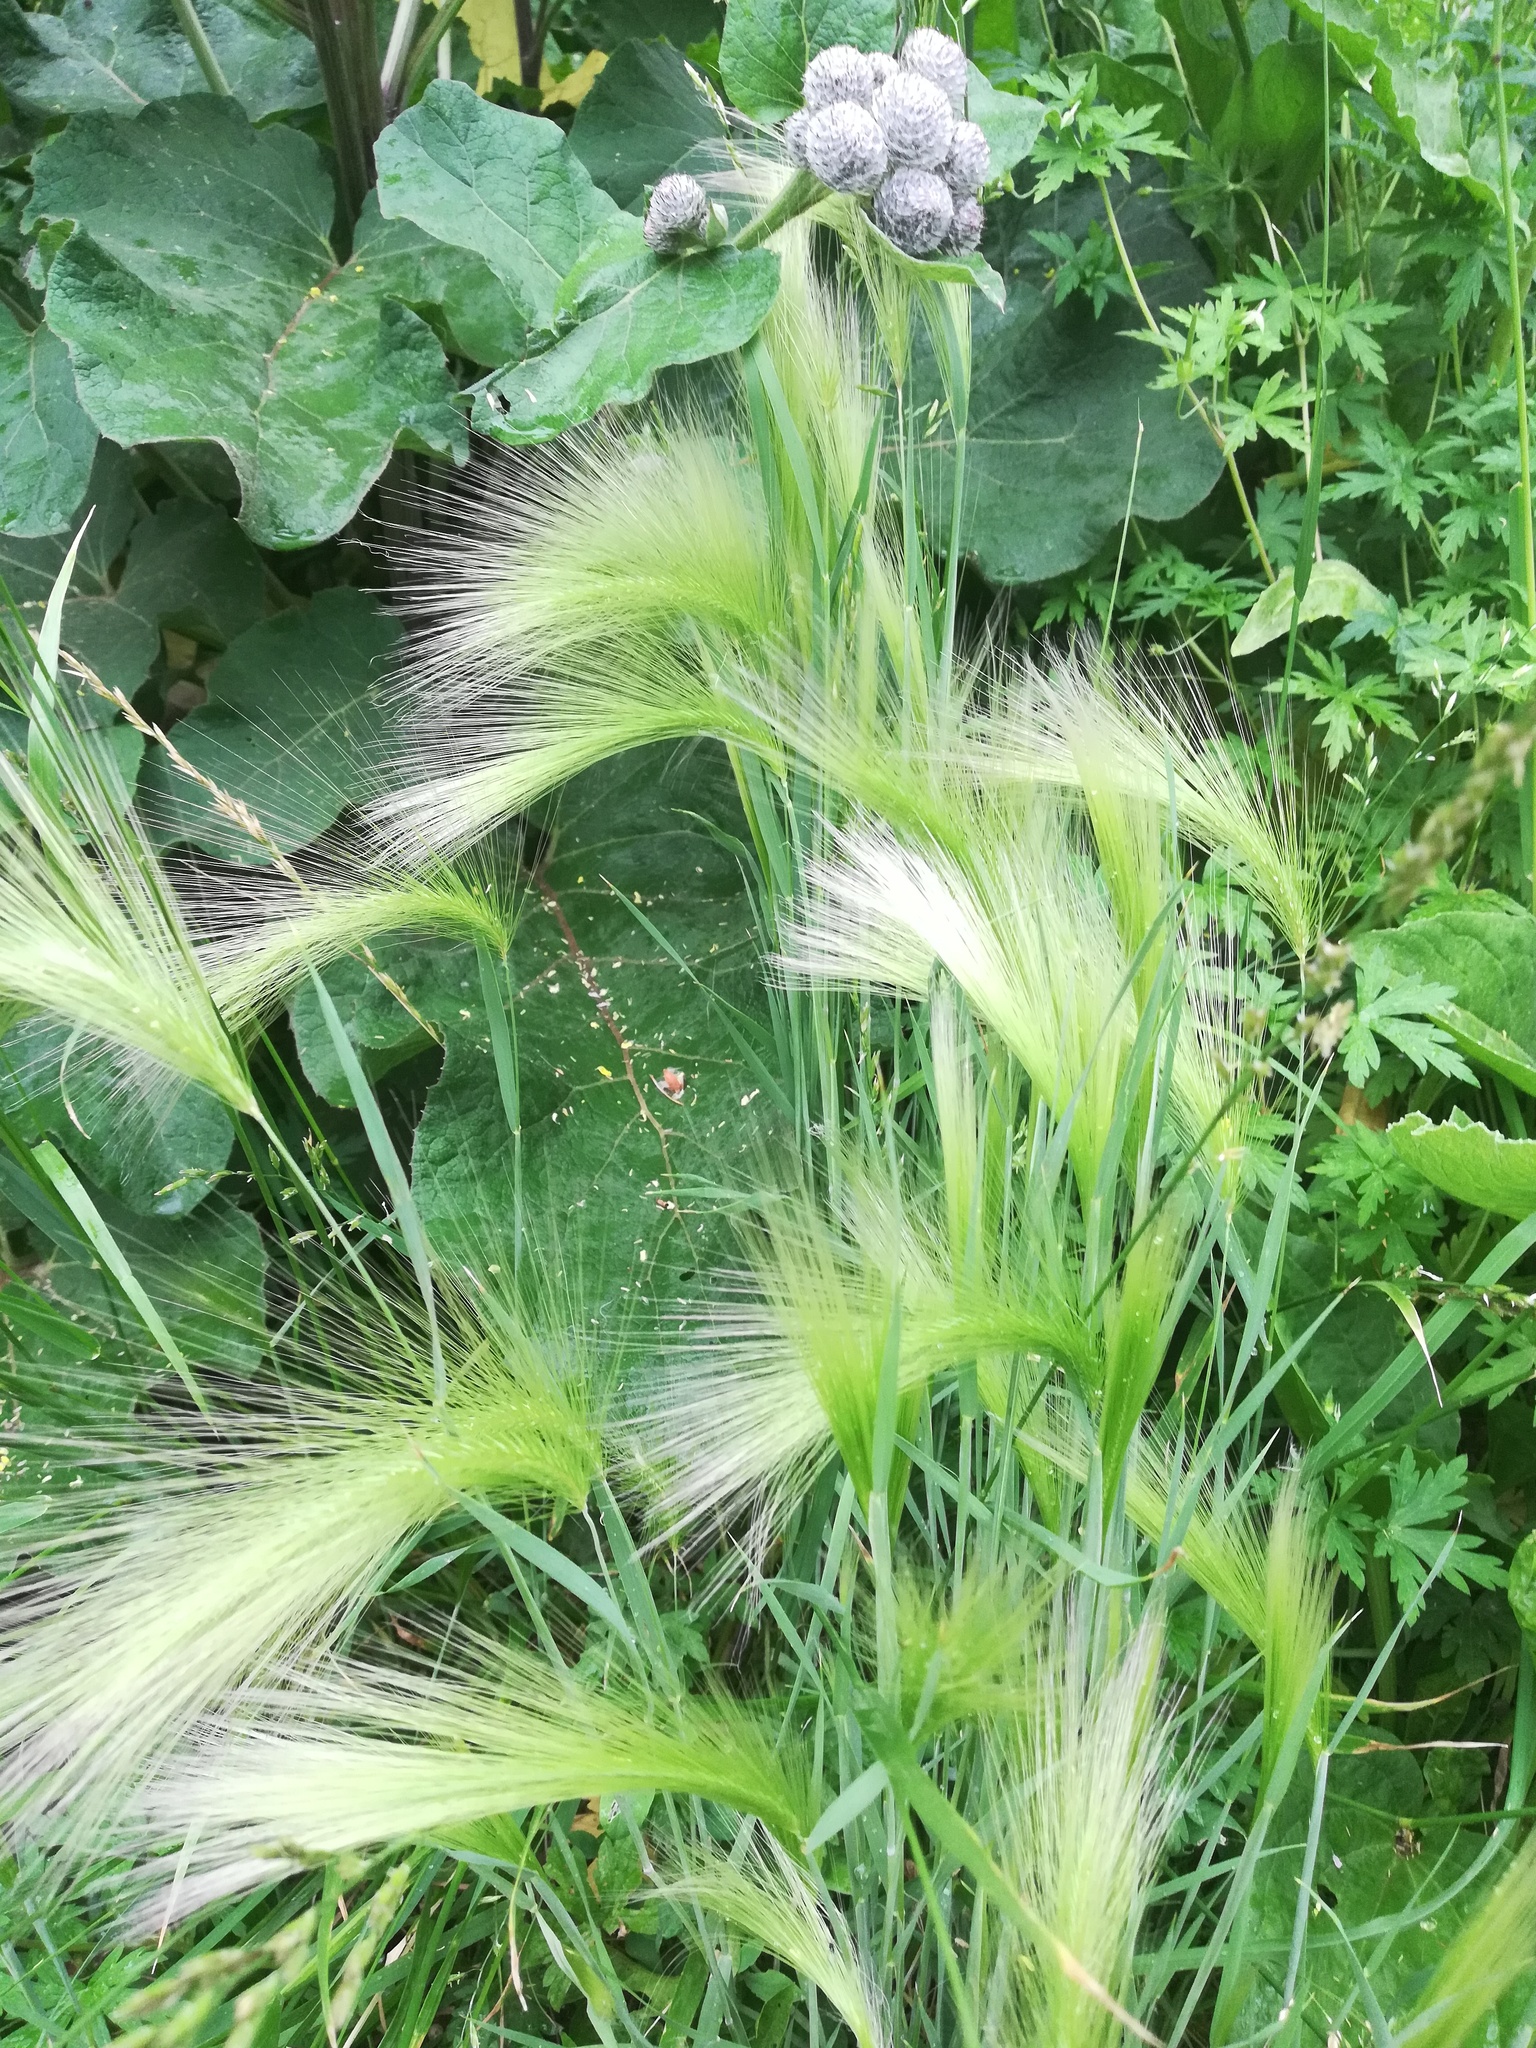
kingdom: Plantae
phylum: Tracheophyta
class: Liliopsida
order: Poales
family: Poaceae
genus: Hordeum
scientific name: Hordeum jubatum
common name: Foxtail barley
